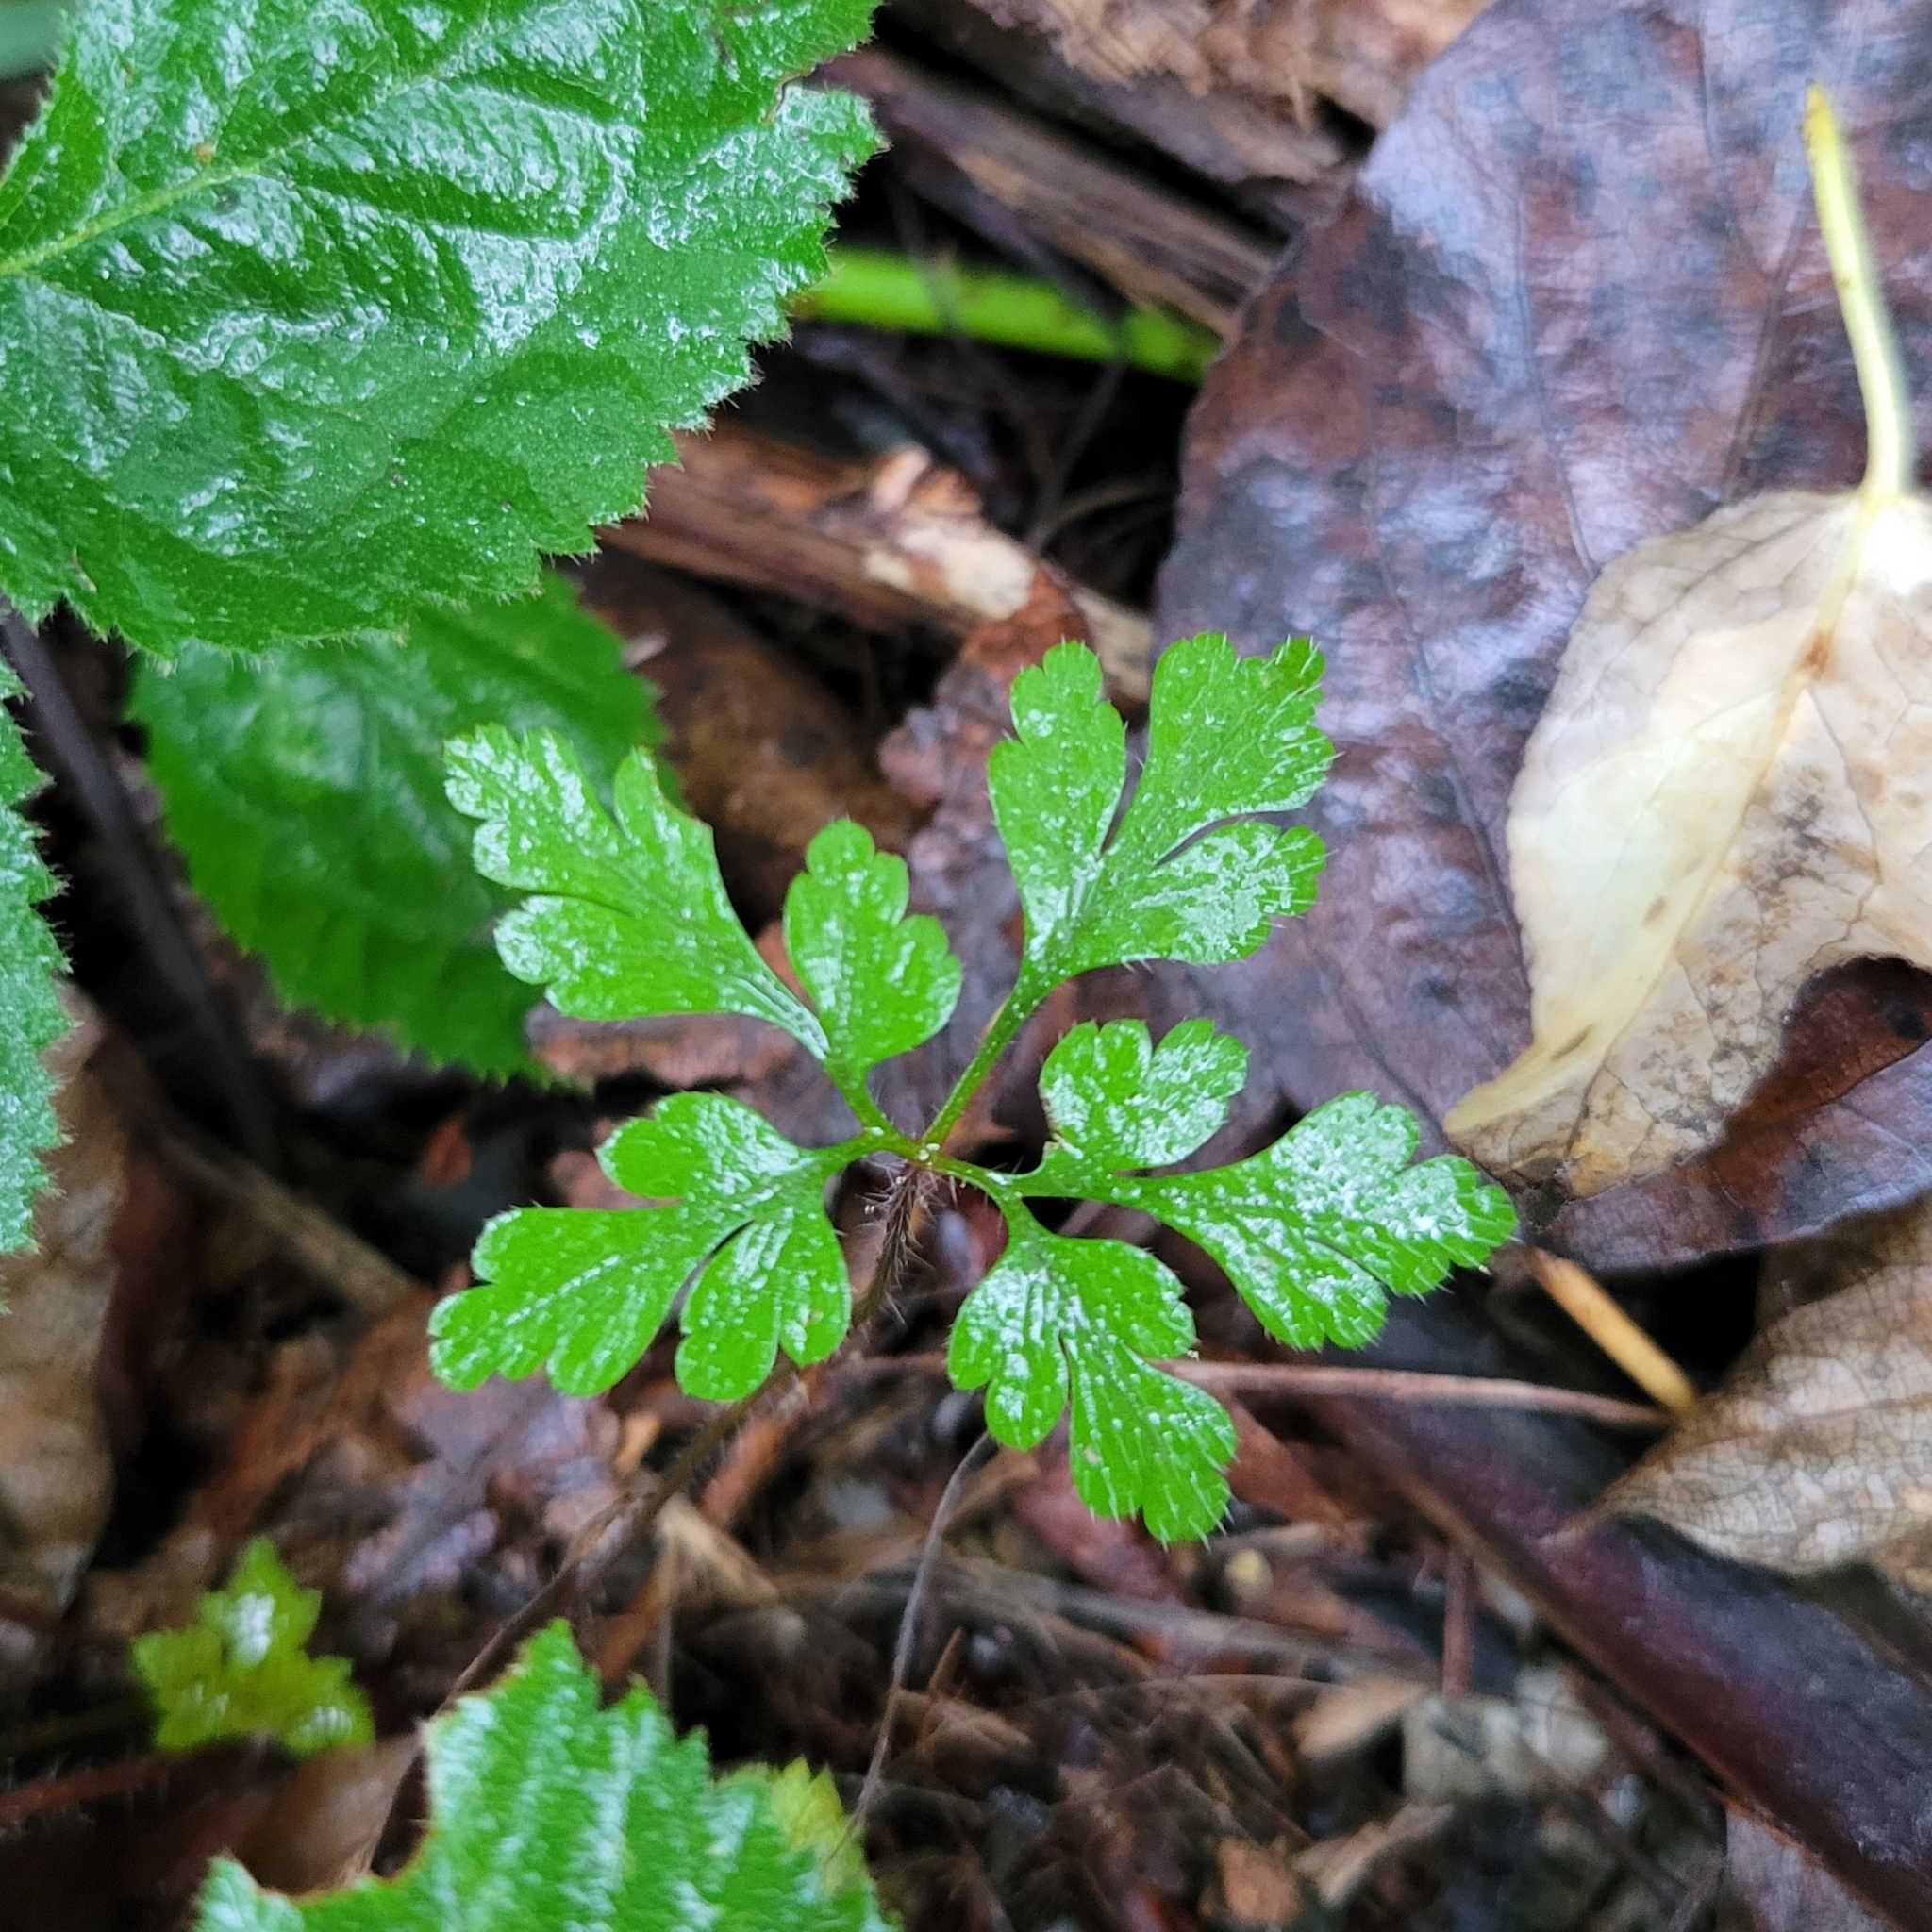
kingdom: Plantae
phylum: Tracheophyta
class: Magnoliopsida
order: Geraniales
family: Geraniaceae
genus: Geranium
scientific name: Geranium robertianum
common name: Herb-robert
